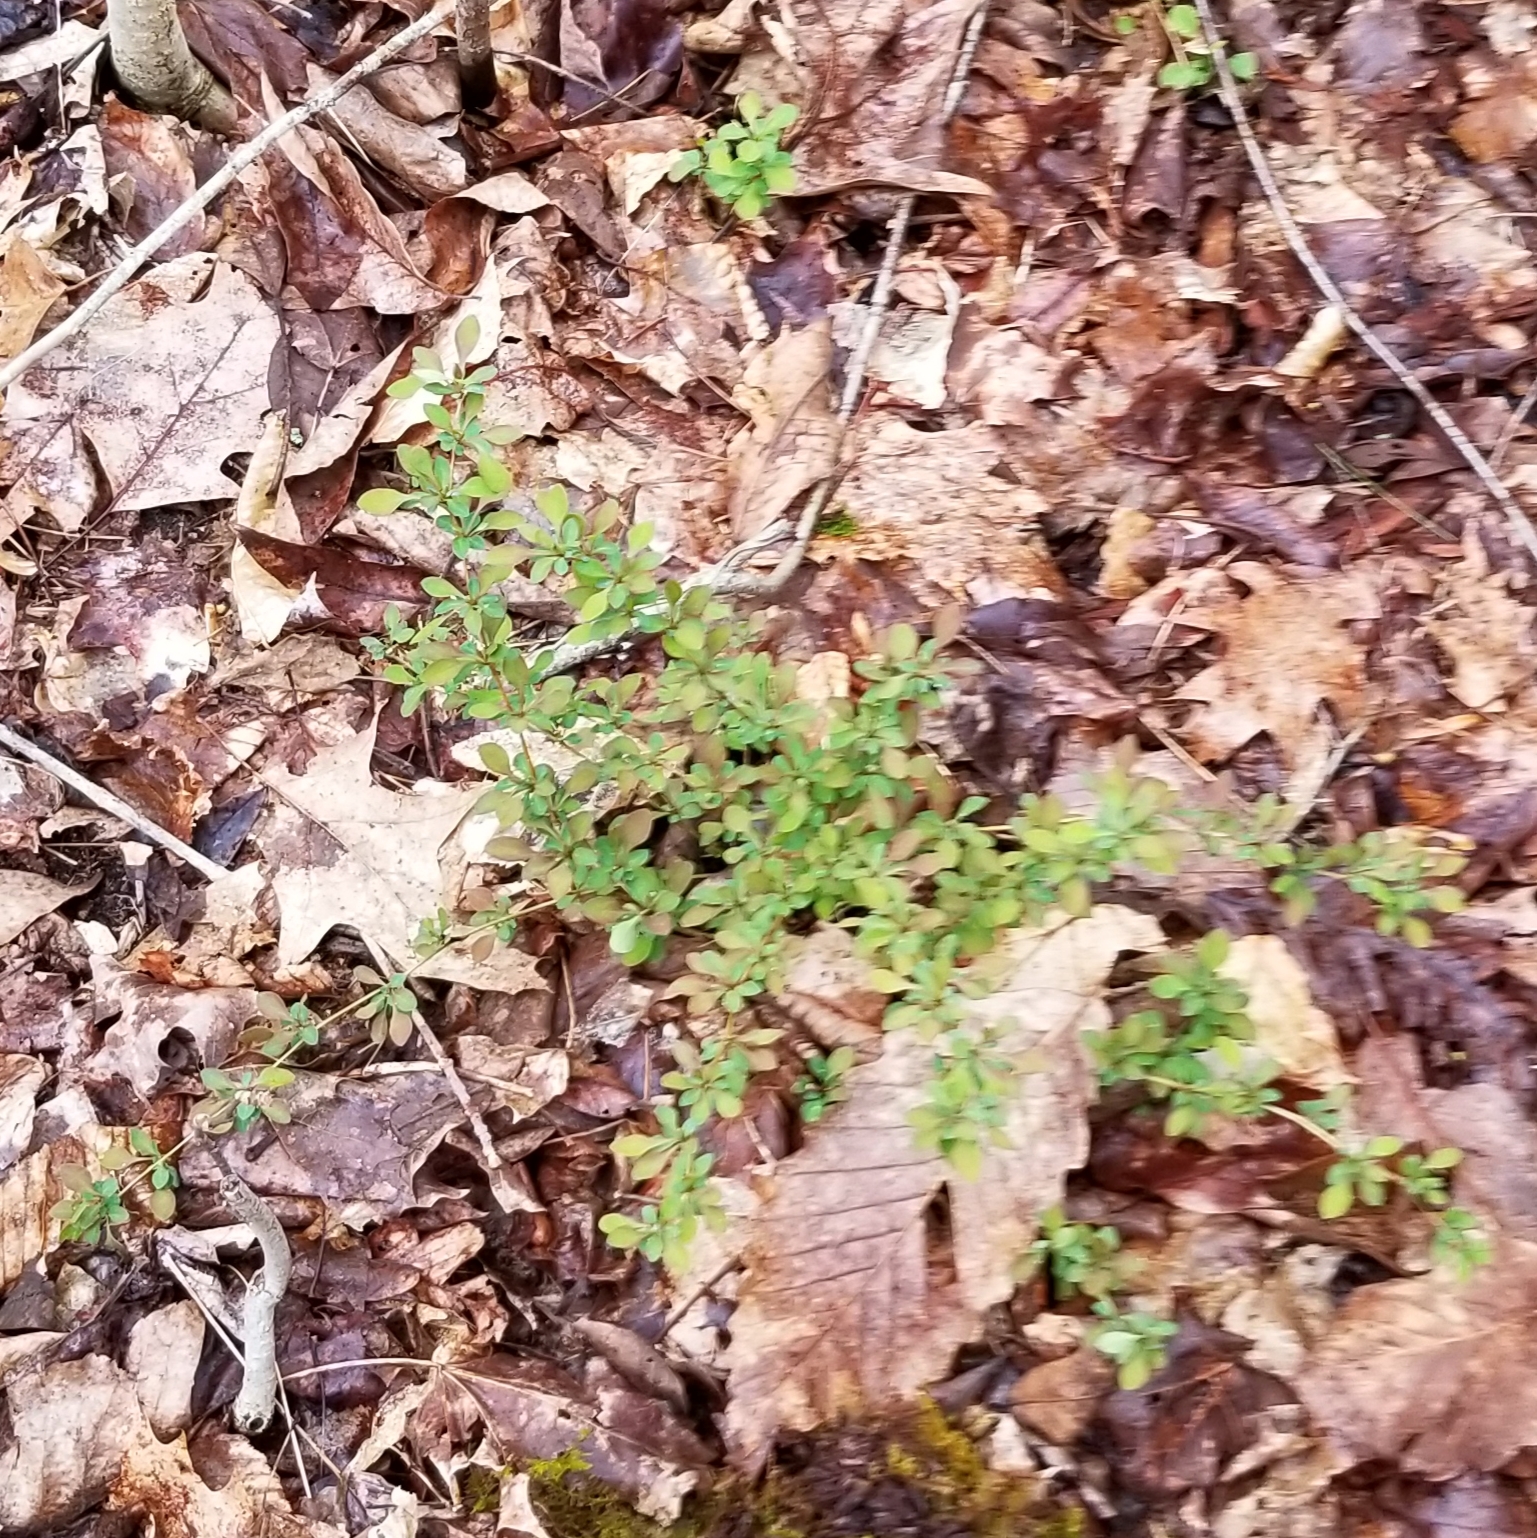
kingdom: Plantae
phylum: Tracheophyta
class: Magnoliopsida
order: Ranunculales
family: Berberidaceae
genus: Berberis
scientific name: Berberis thunbergii
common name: Japanese barberry
